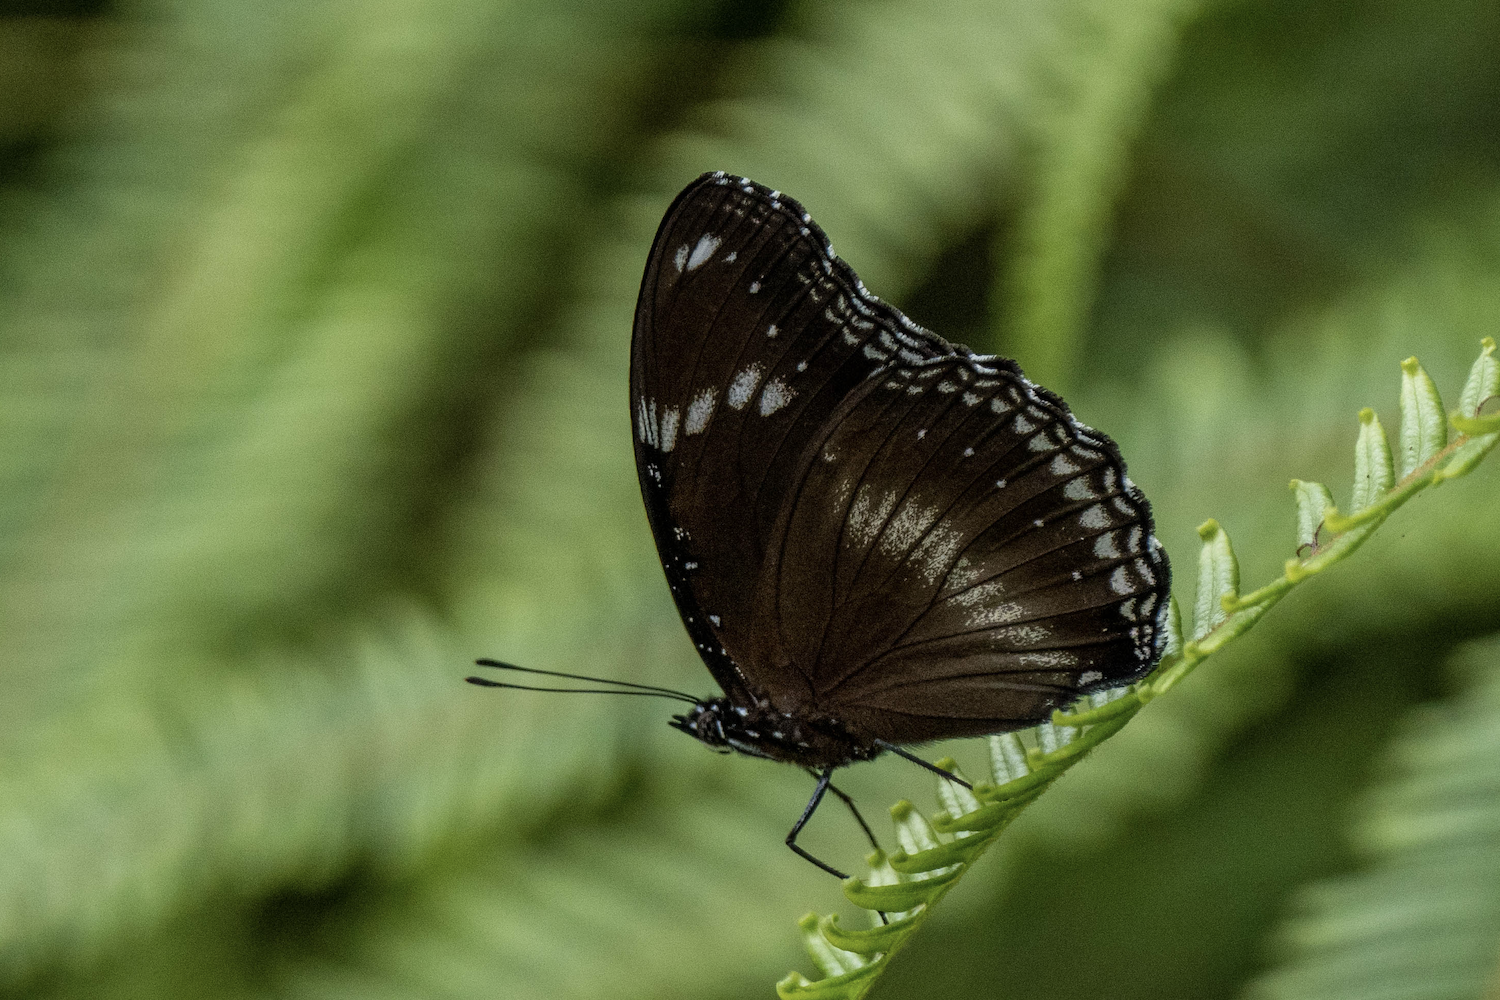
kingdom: Animalia
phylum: Arthropoda
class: Insecta
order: Lepidoptera
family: Nymphalidae
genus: Hypolimnas
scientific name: Hypolimnas bolina
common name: Great eggfly
